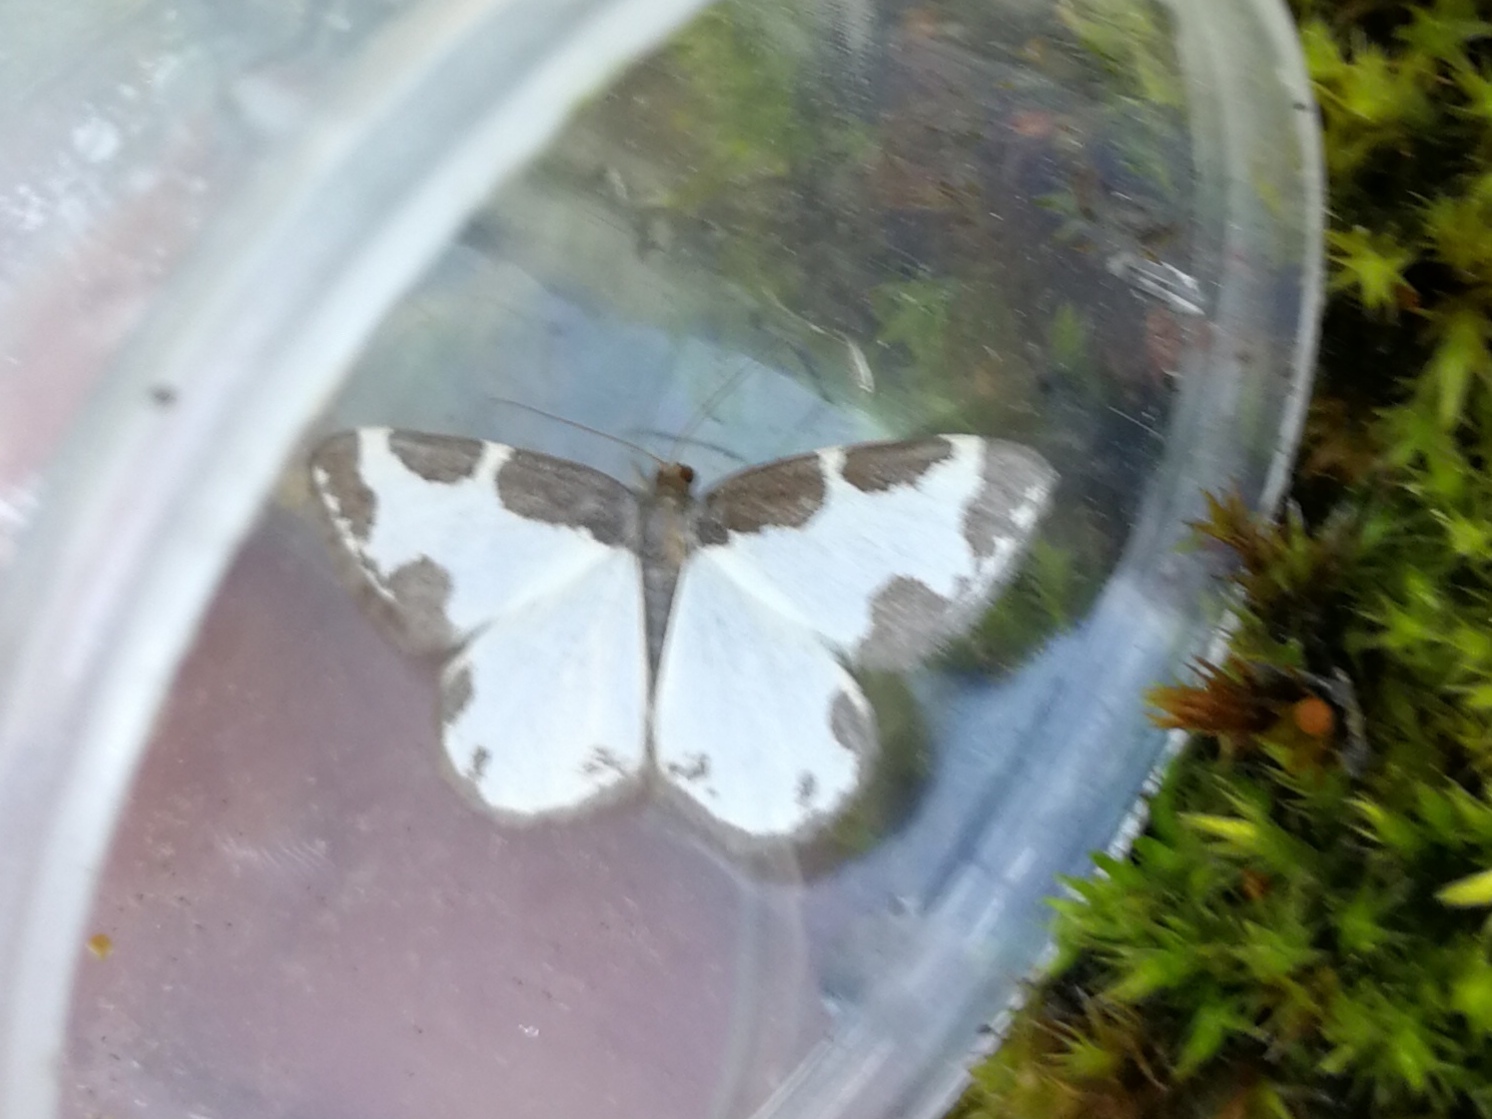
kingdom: Animalia
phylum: Arthropoda
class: Insecta
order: Lepidoptera
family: Geometridae
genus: Lomaspilis
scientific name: Lomaspilis marginata
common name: Clouded border
